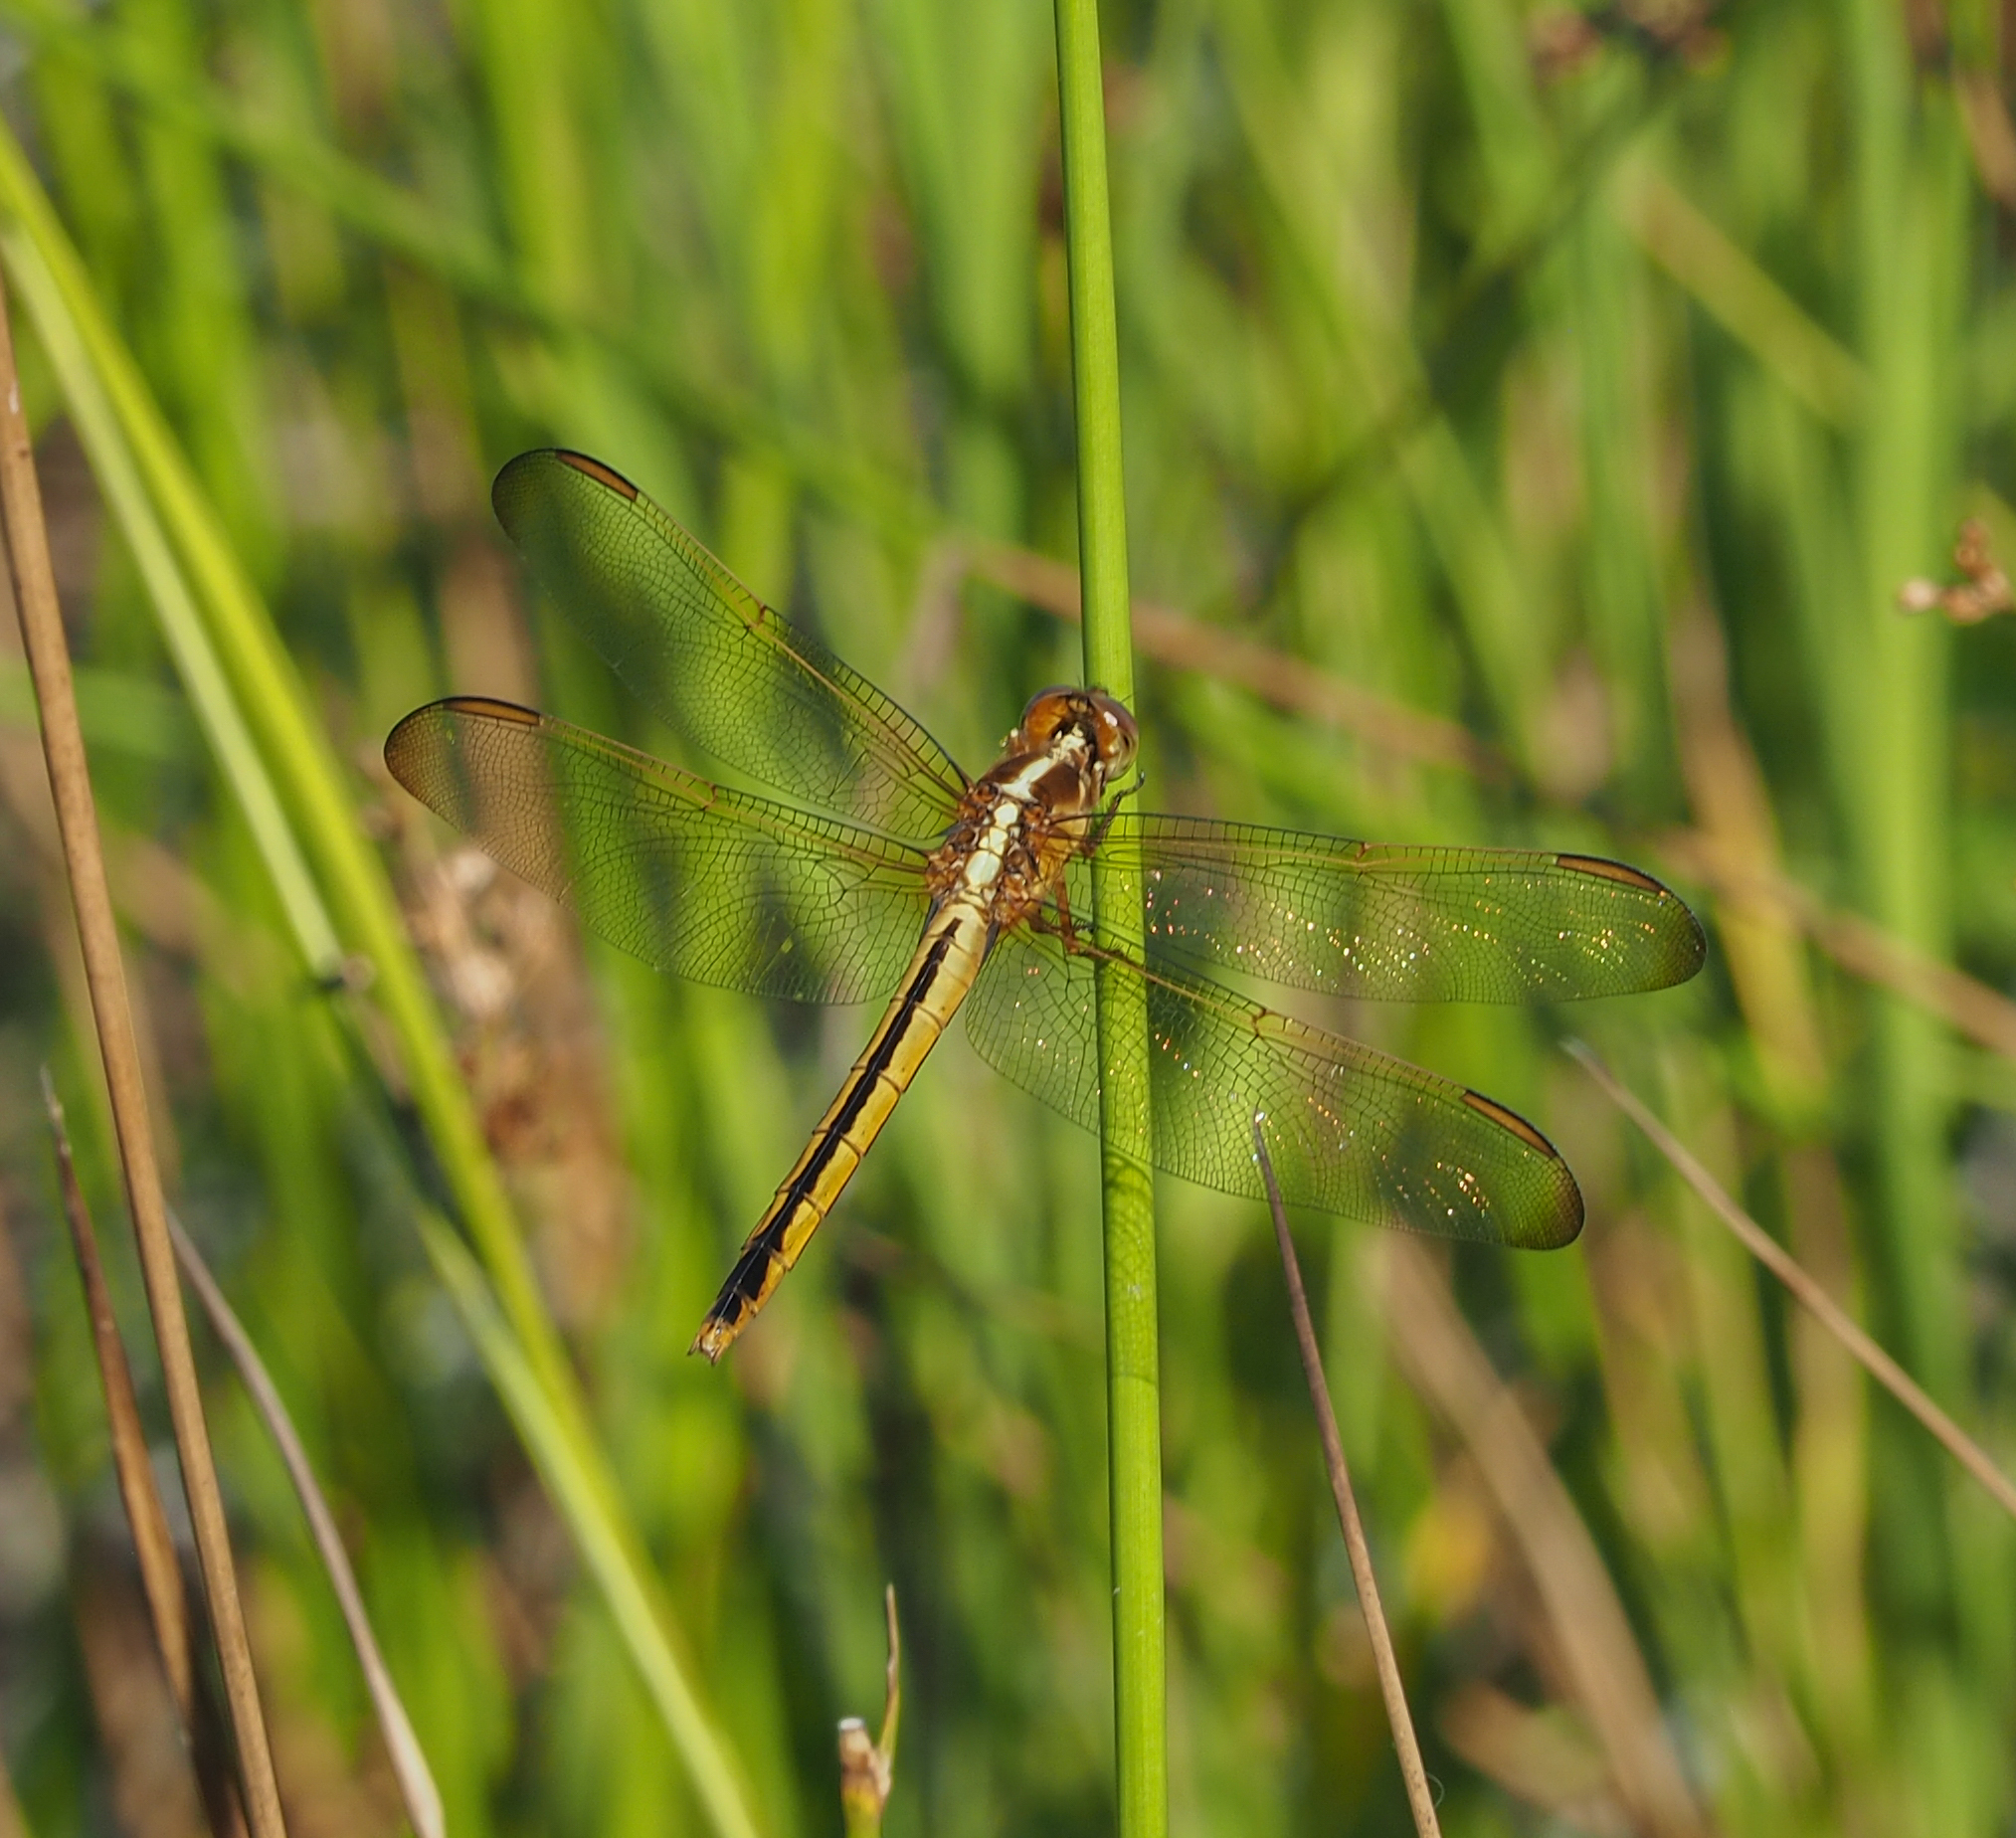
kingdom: Animalia
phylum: Arthropoda
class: Insecta
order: Odonata
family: Libellulidae
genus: Libellula
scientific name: Libellula needhami
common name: Needham's skimmer
